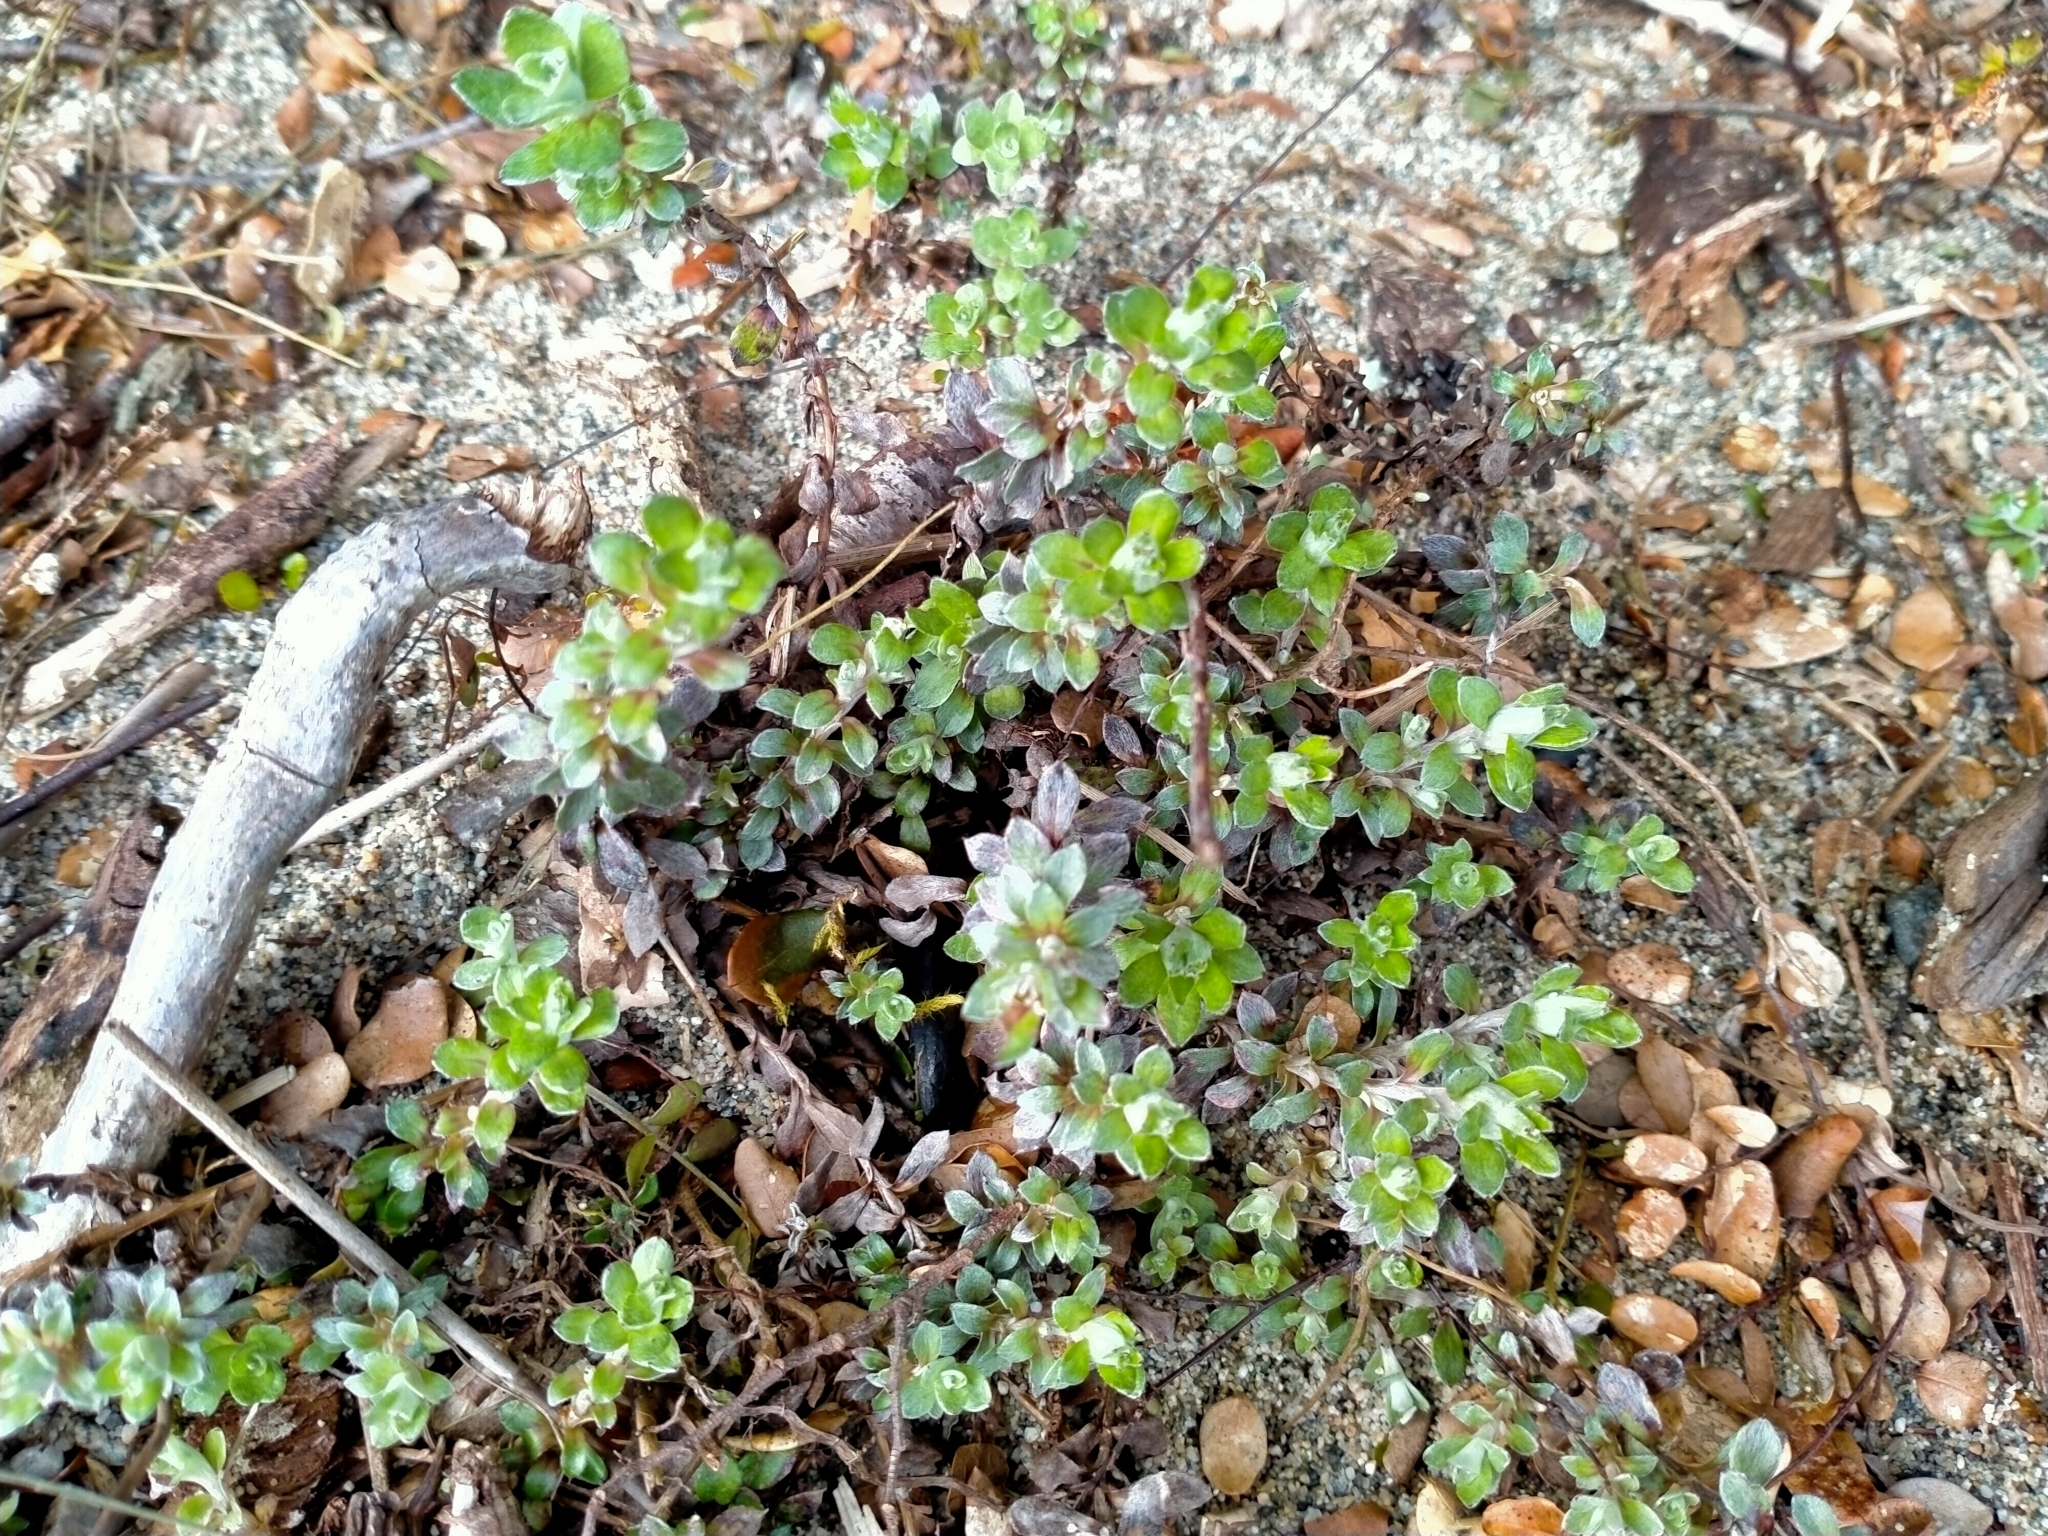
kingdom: Plantae
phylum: Tracheophyta
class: Magnoliopsida
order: Asterales
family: Asteraceae
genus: Anaphalioides
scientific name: Anaphalioides bellidioides
